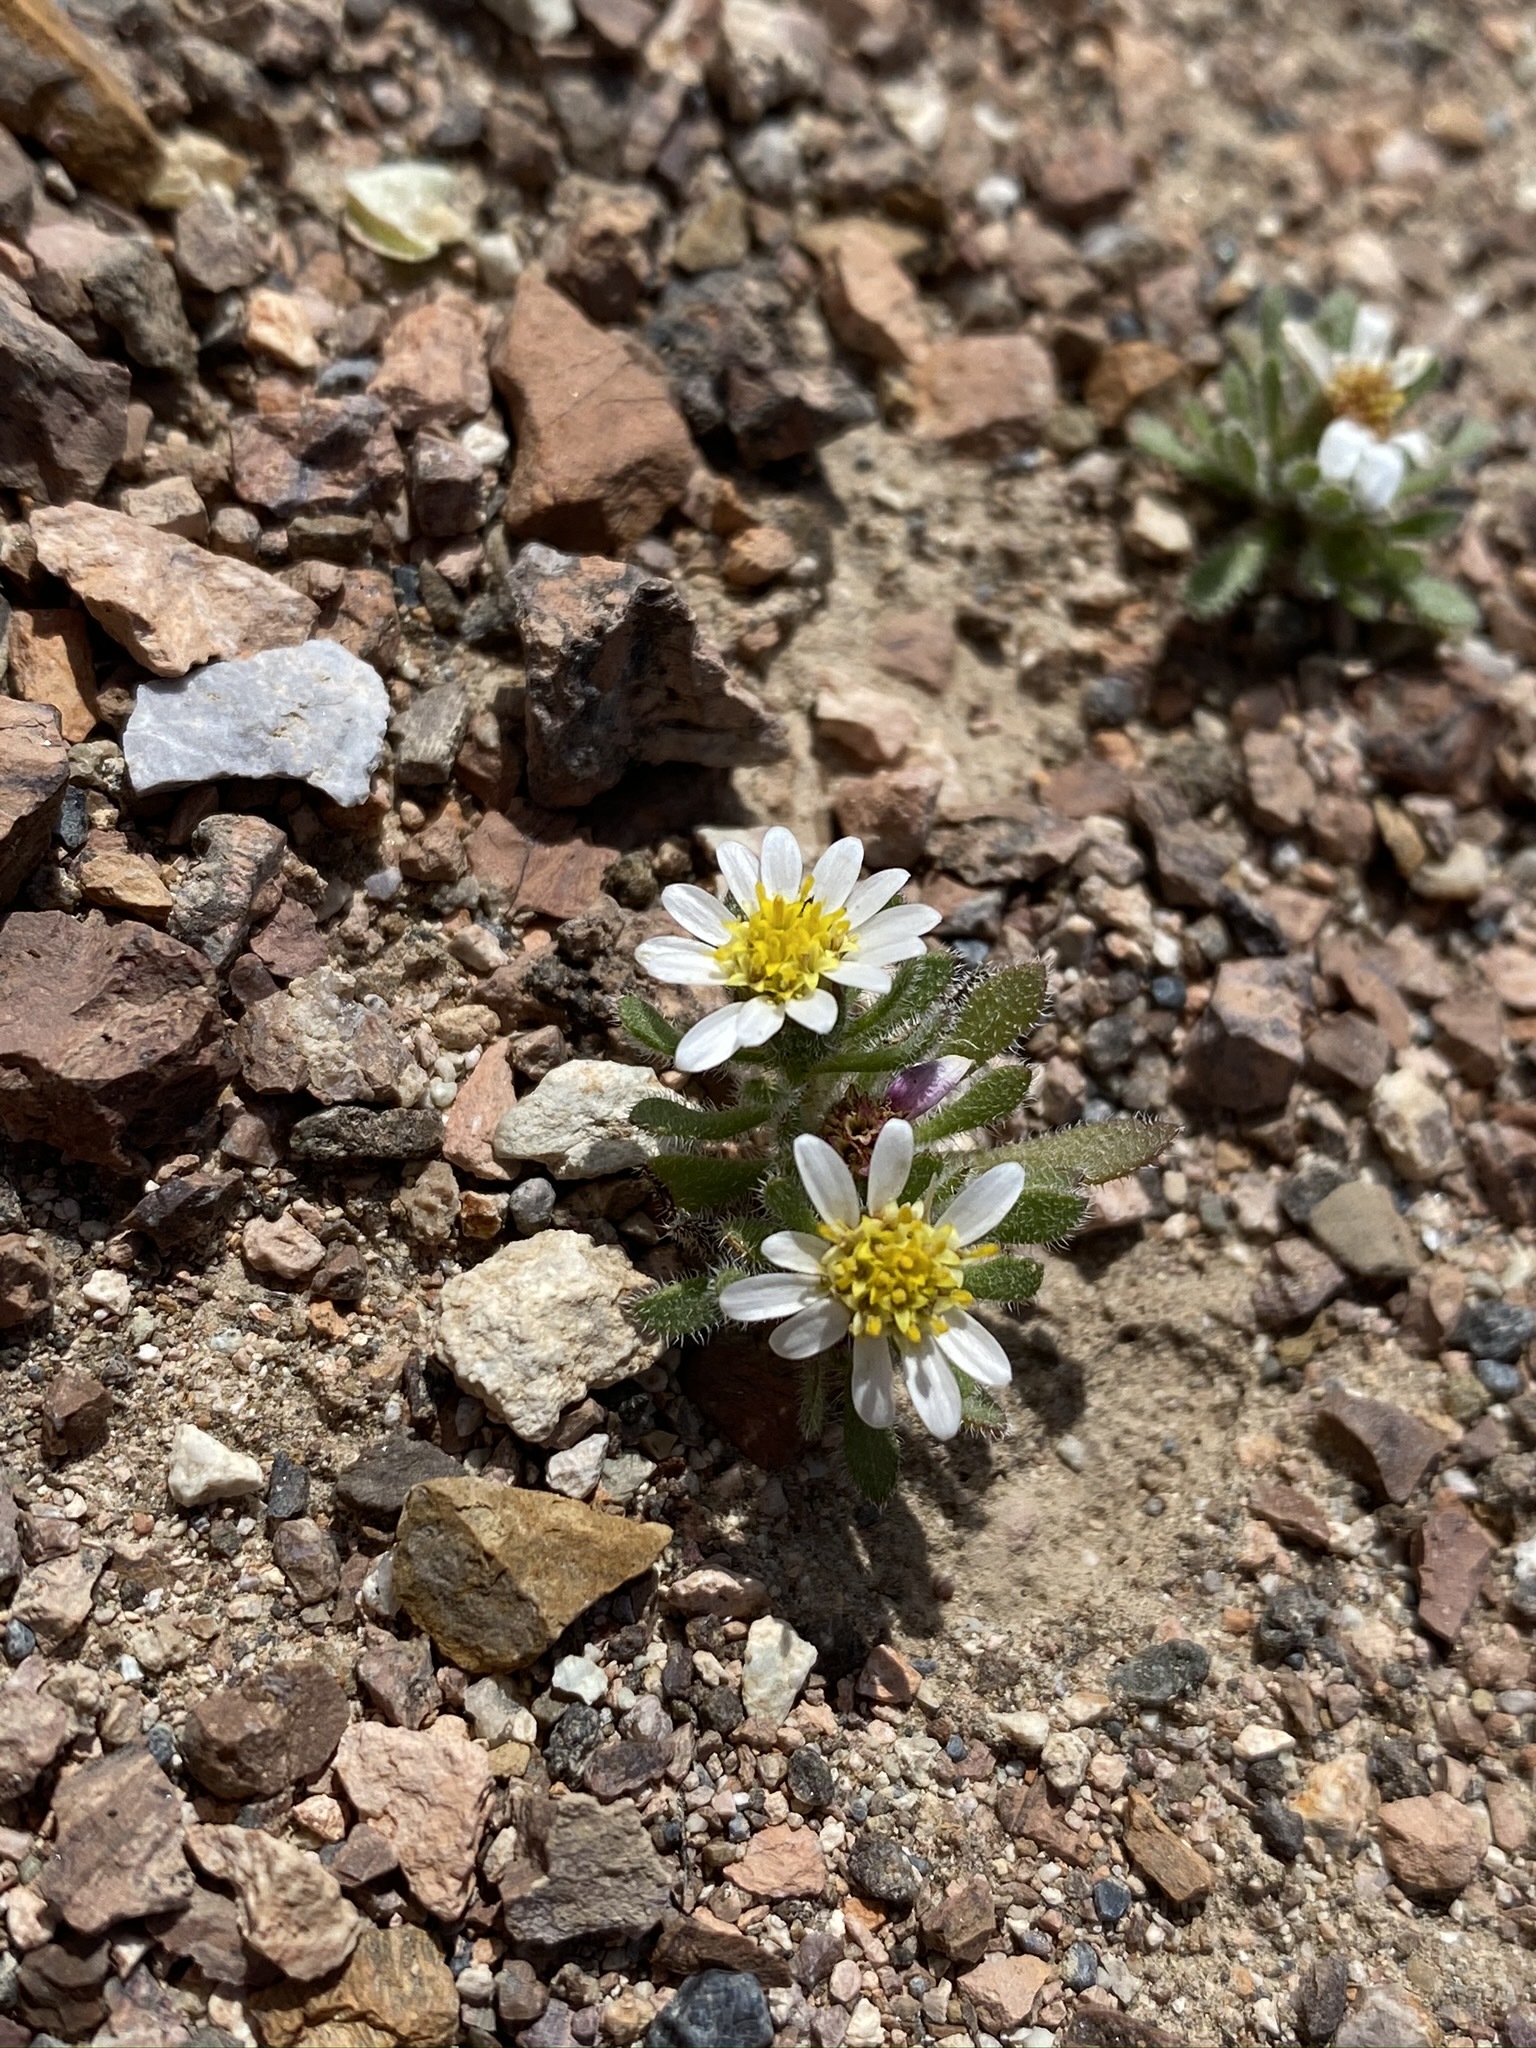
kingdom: Plantae
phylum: Tracheophyta
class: Magnoliopsida
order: Asterales
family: Asteraceae
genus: Monoptilon
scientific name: Monoptilon bellioides
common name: Bristly desertstar
